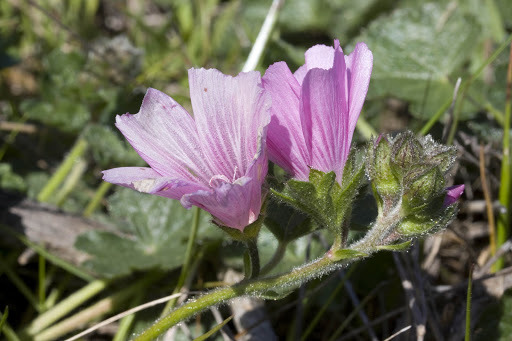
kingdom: Plantae
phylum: Tracheophyta
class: Magnoliopsida
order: Malvales
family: Malvaceae
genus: Sidalcea
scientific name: Sidalcea malviflora
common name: Greek mallow
